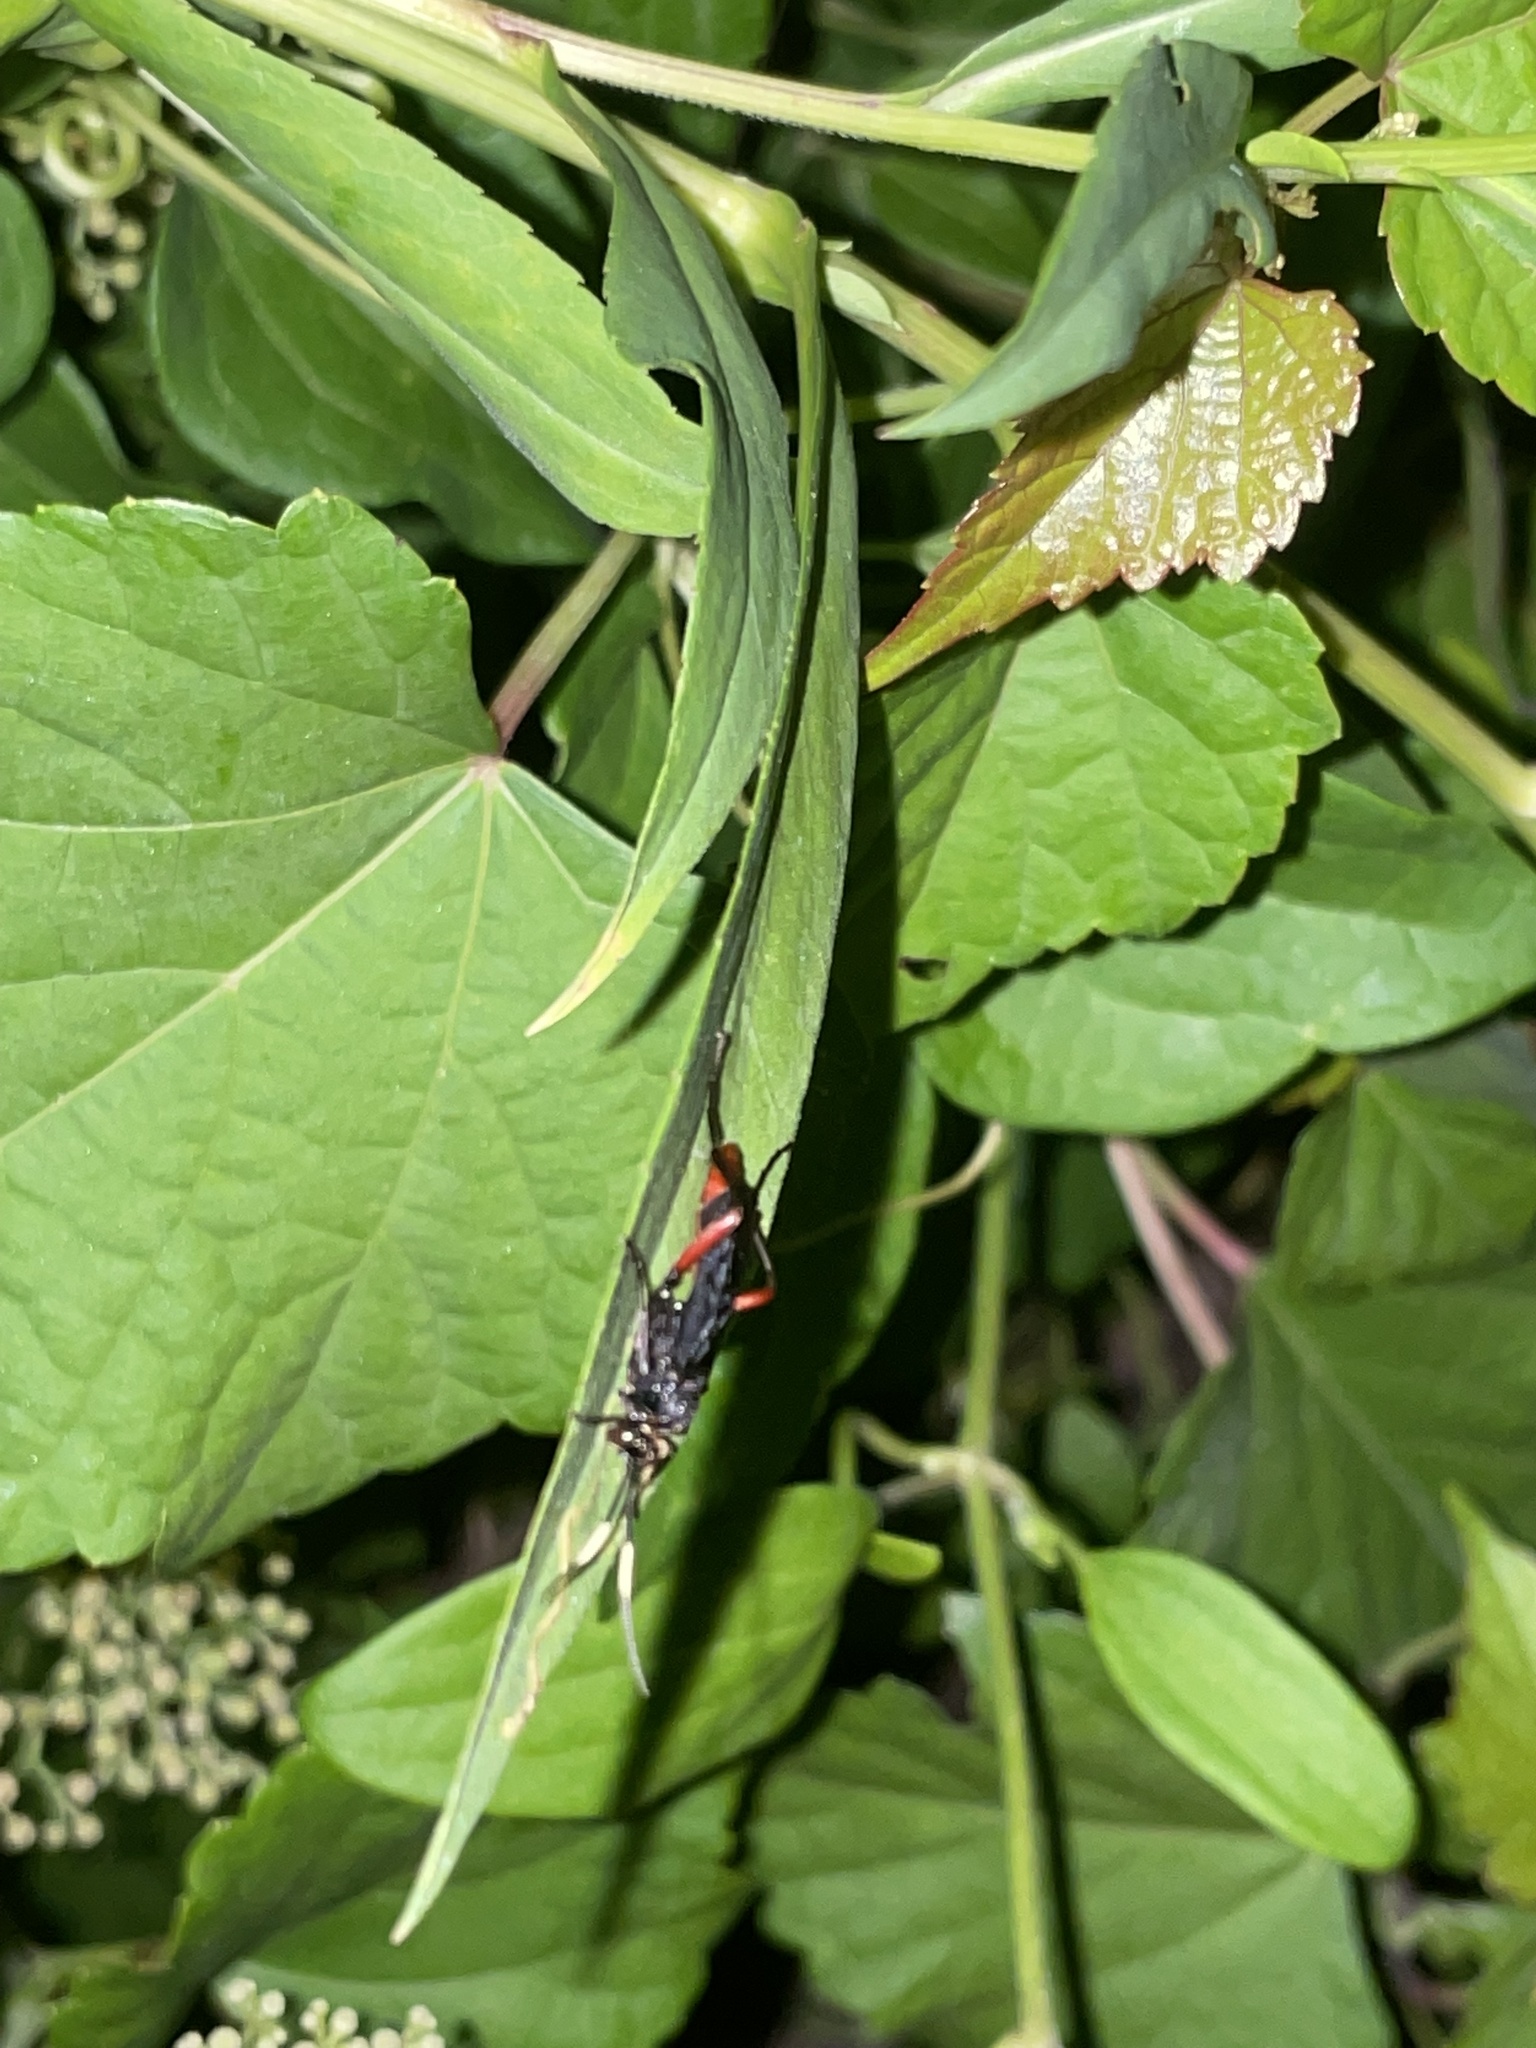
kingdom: Animalia
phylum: Arthropoda
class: Insecta
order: Hymenoptera
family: Ichneumonidae
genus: Limonethe
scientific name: Limonethe maurator
